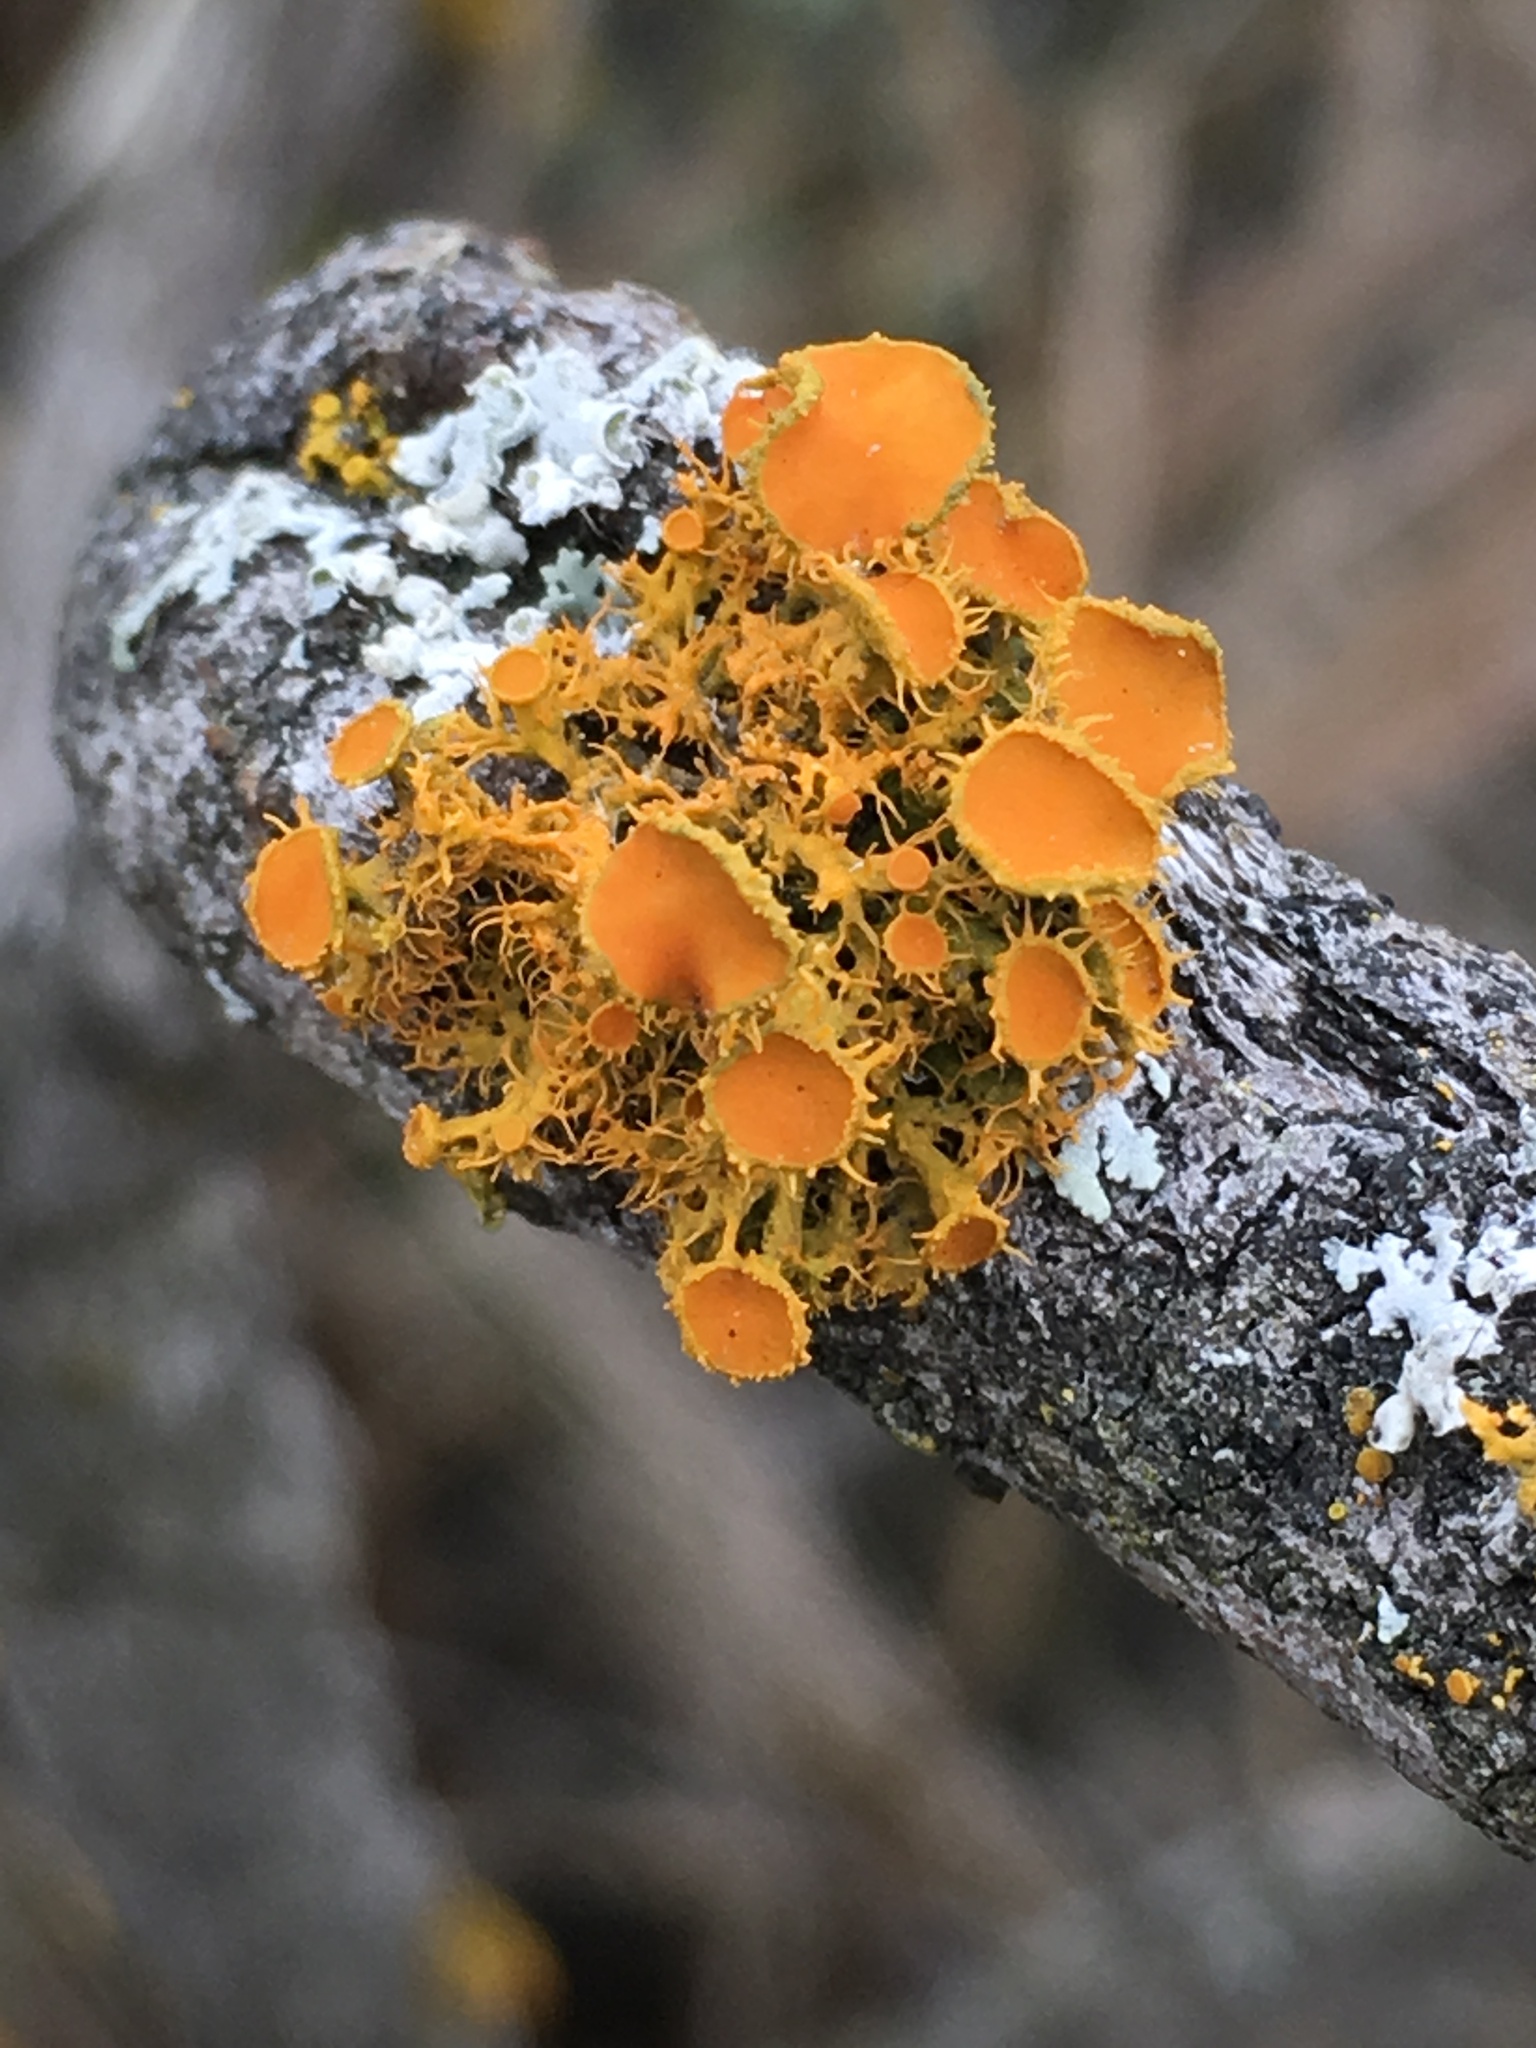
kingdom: Fungi
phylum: Ascomycota
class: Lecanoromycetes
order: Teloschistales
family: Teloschistaceae
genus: Niorma
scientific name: Niorma chrysophthalma
